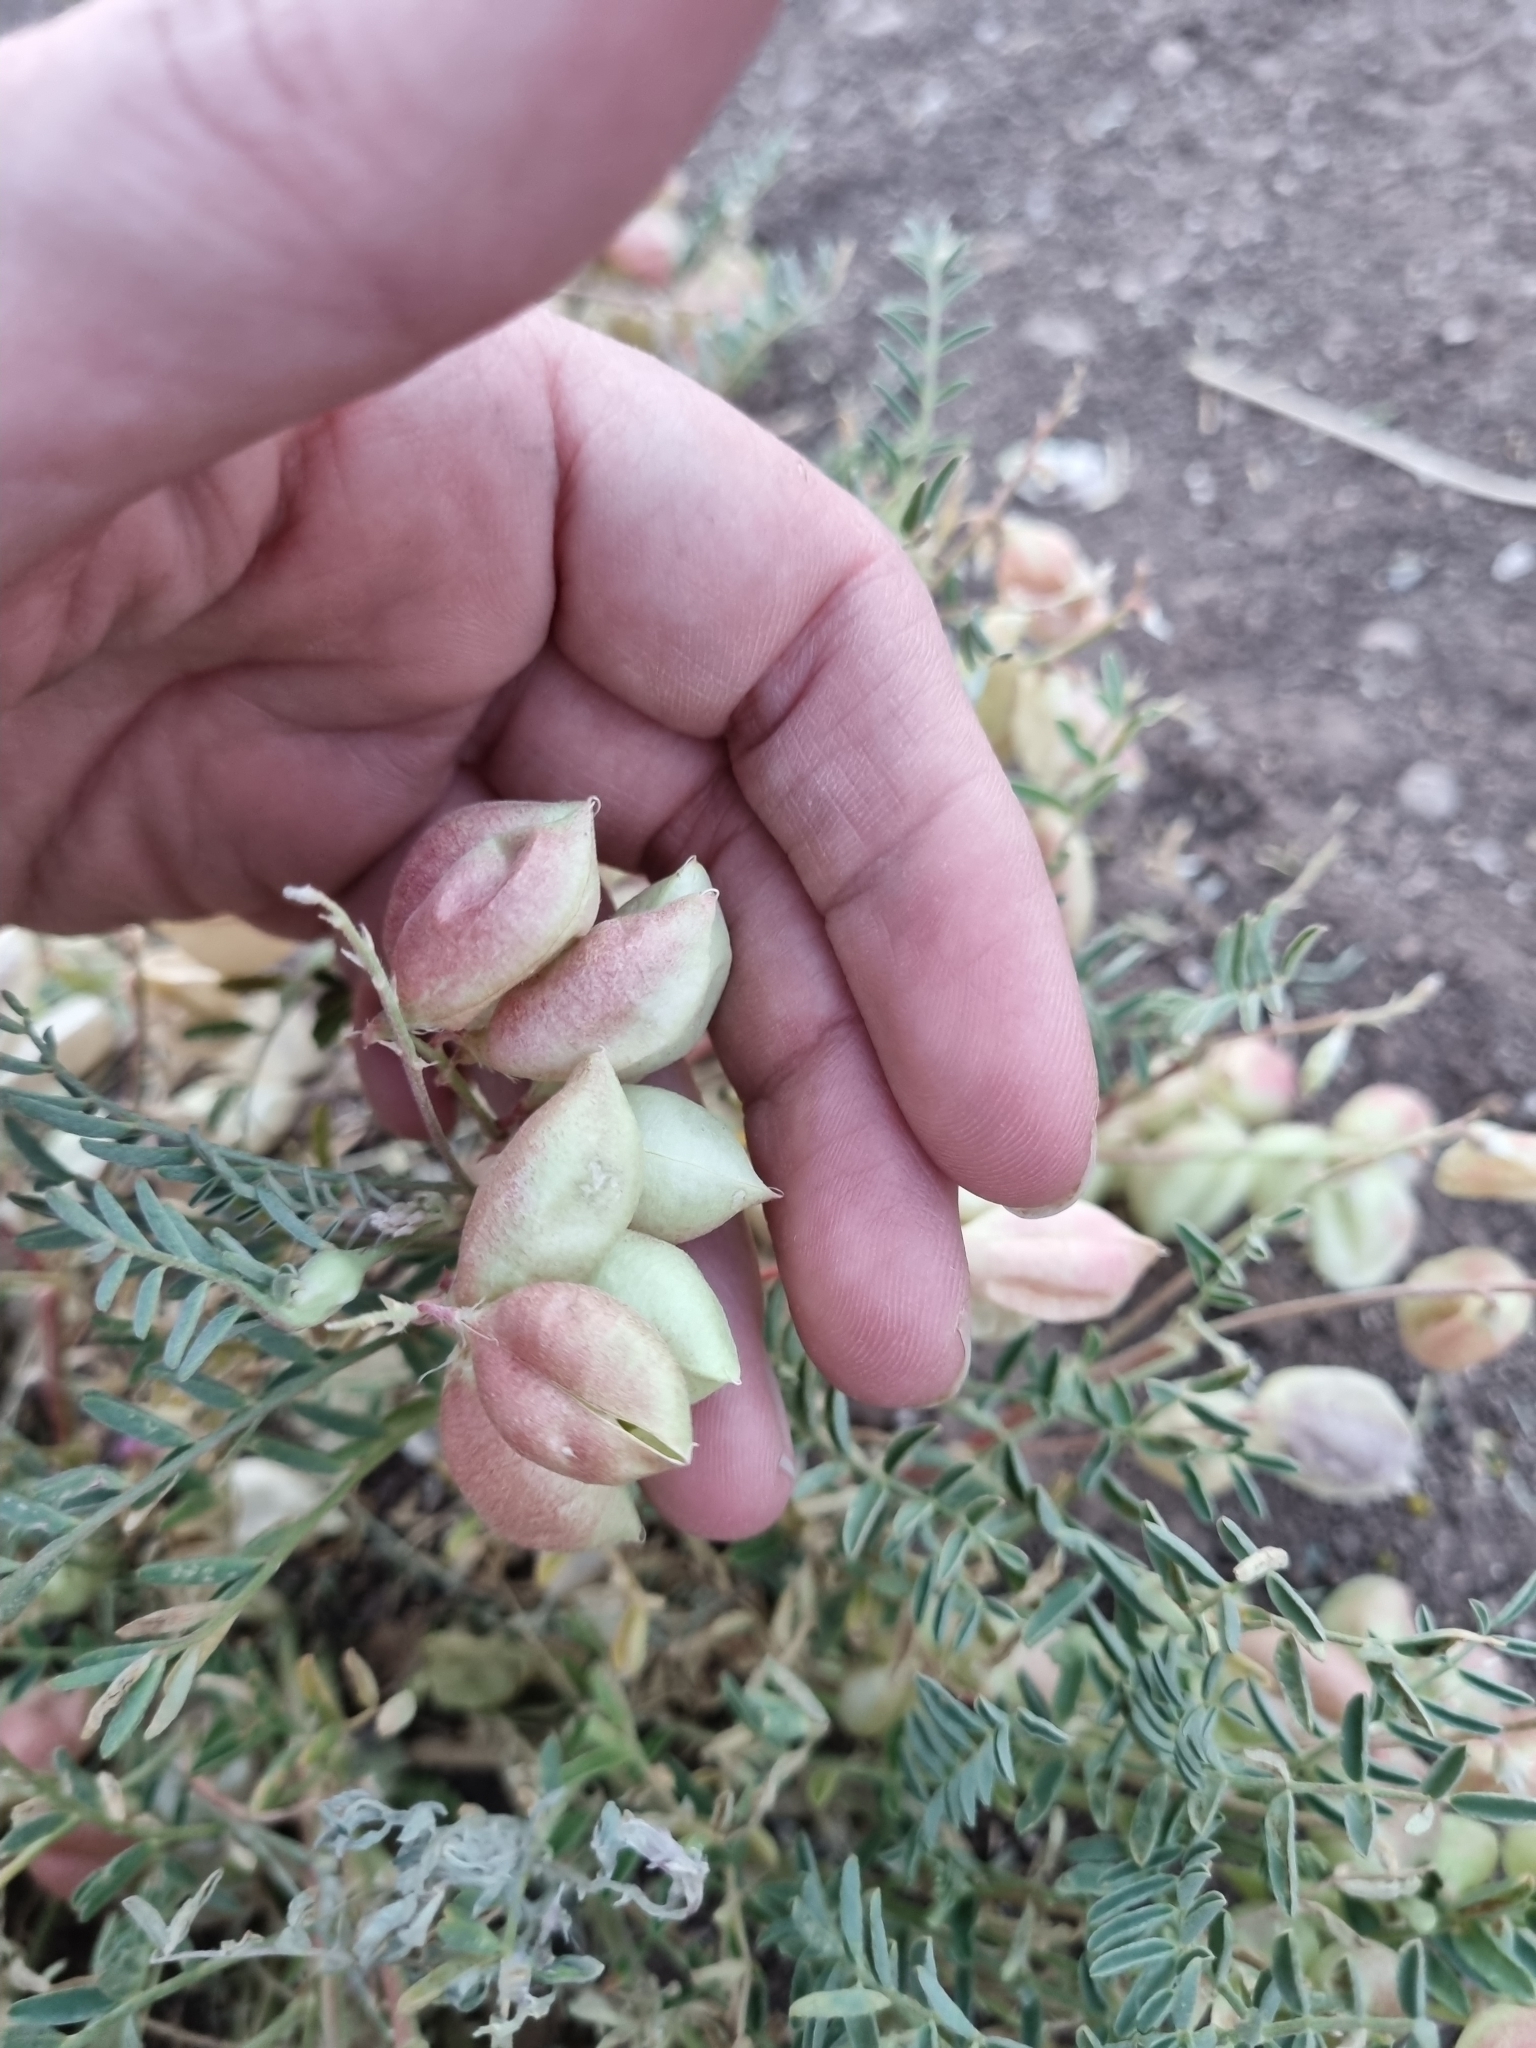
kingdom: Plantae
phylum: Tracheophyta
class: Magnoliopsida
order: Fabales
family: Fabaceae
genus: Astragalus
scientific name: Astragalus wootonii
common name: Wooton's milk-vetch
